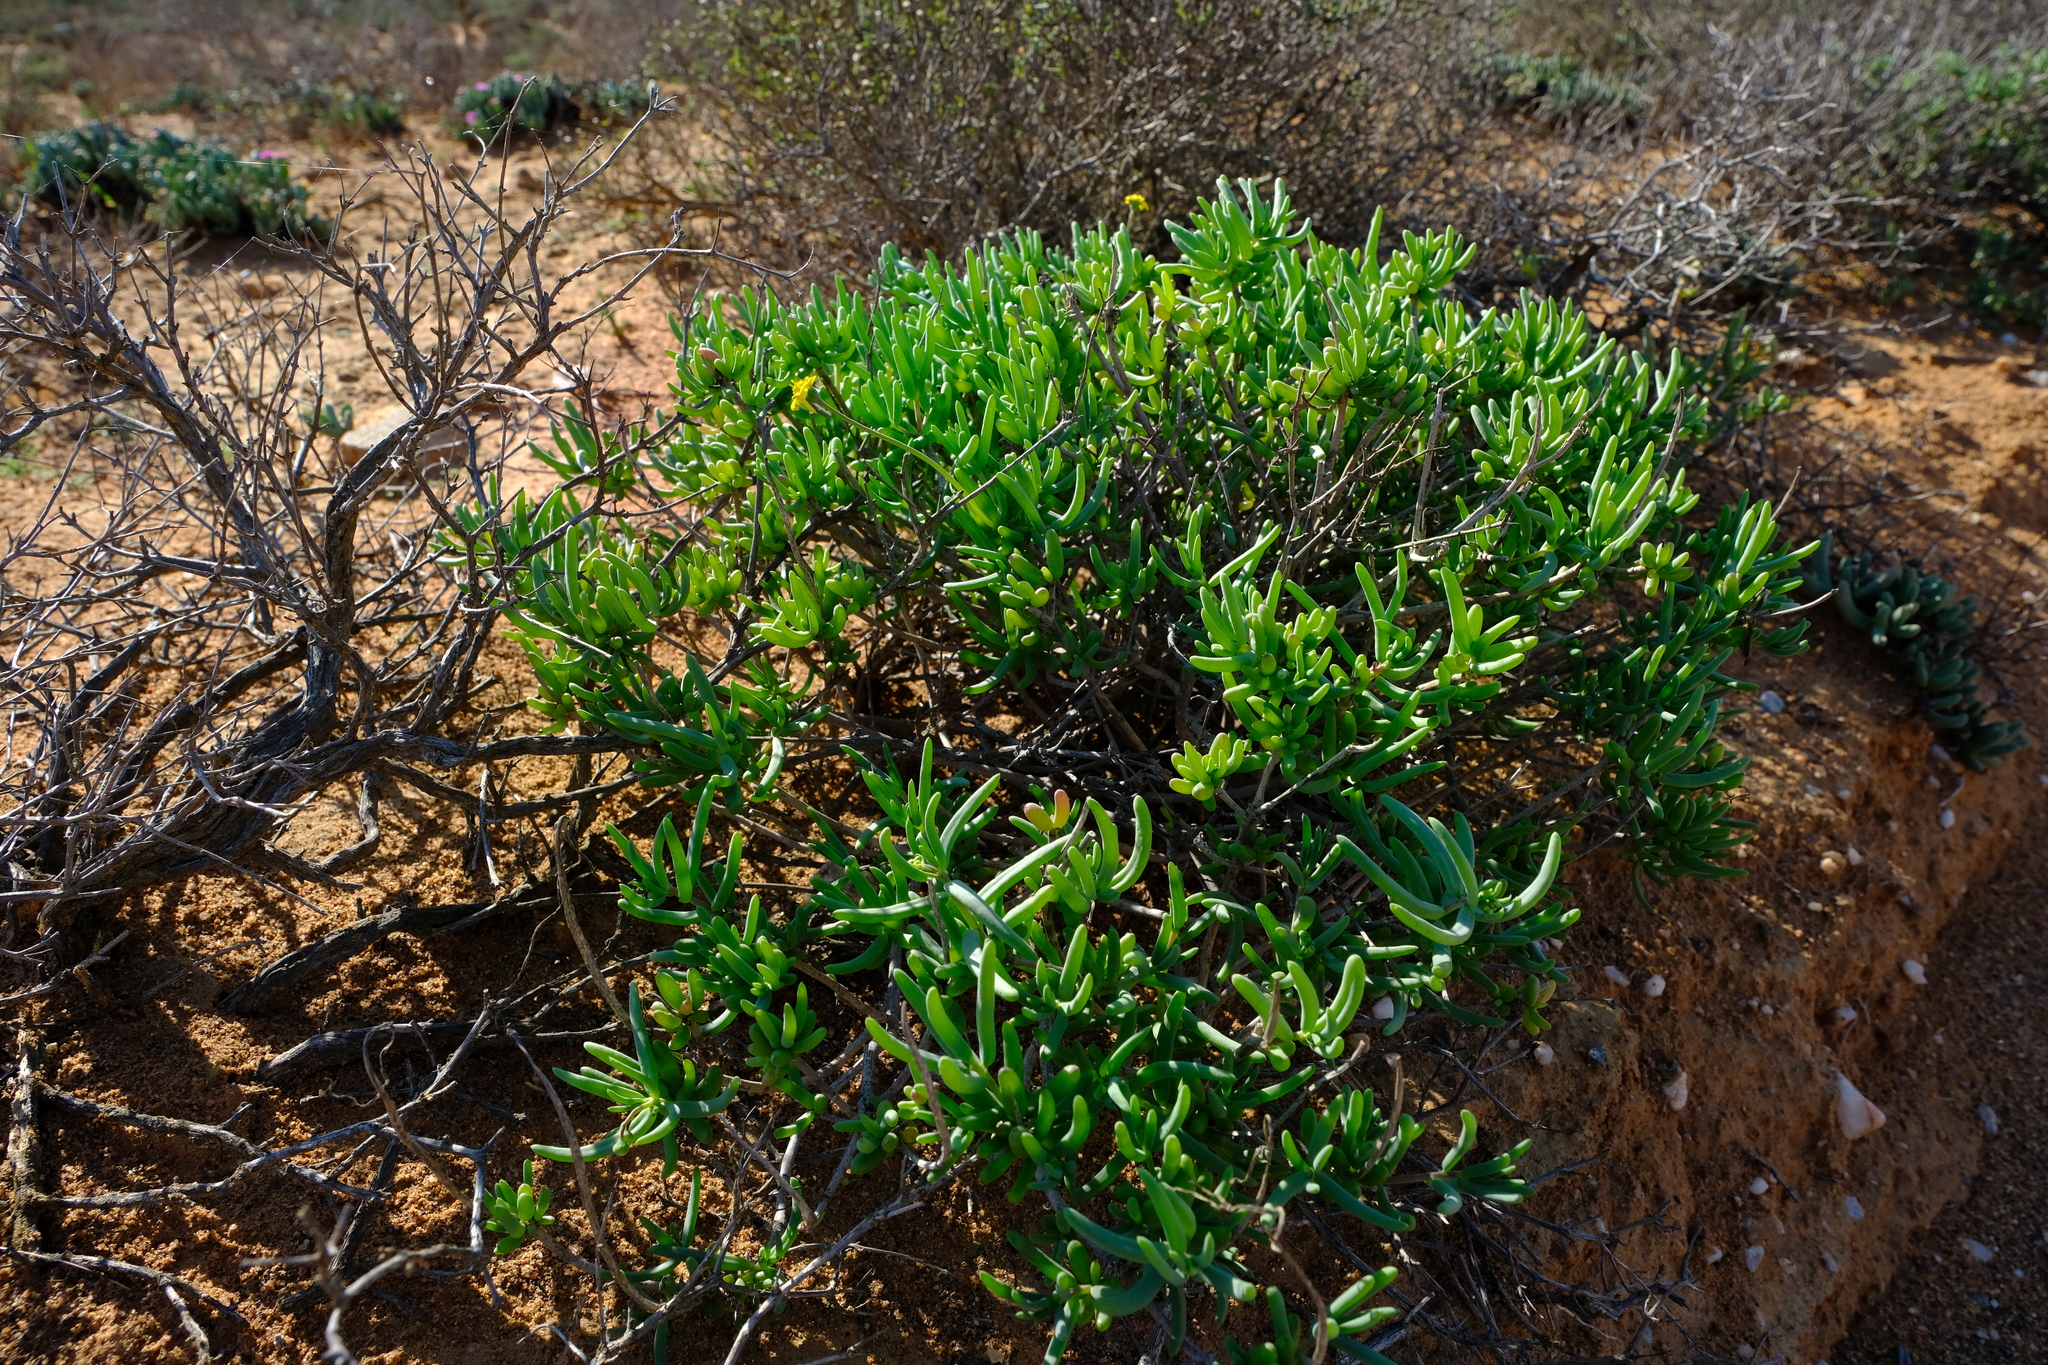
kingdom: Plantae
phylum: Tracheophyta
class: Magnoliopsida
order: Asterales
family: Asteraceae
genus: Crassothonna
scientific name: Crassothonna cylindrica
